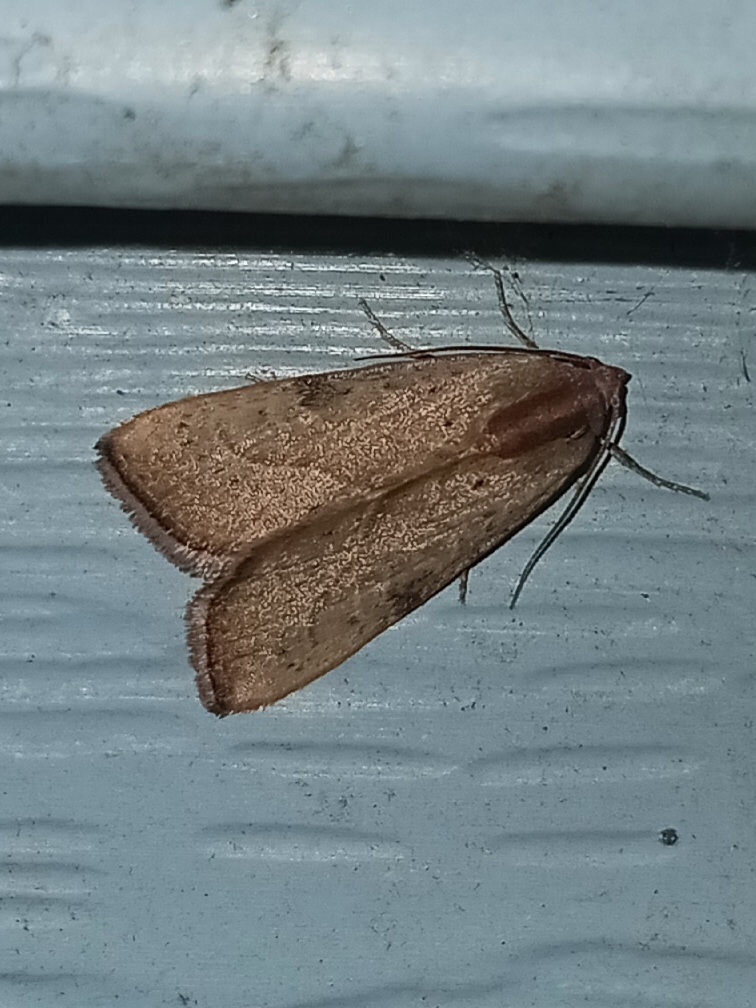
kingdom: Animalia
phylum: Arthropoda
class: Insecta
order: Lepidoptera
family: Noctuidae
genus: Galgula
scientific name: Galgula partita
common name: Wedgeling
